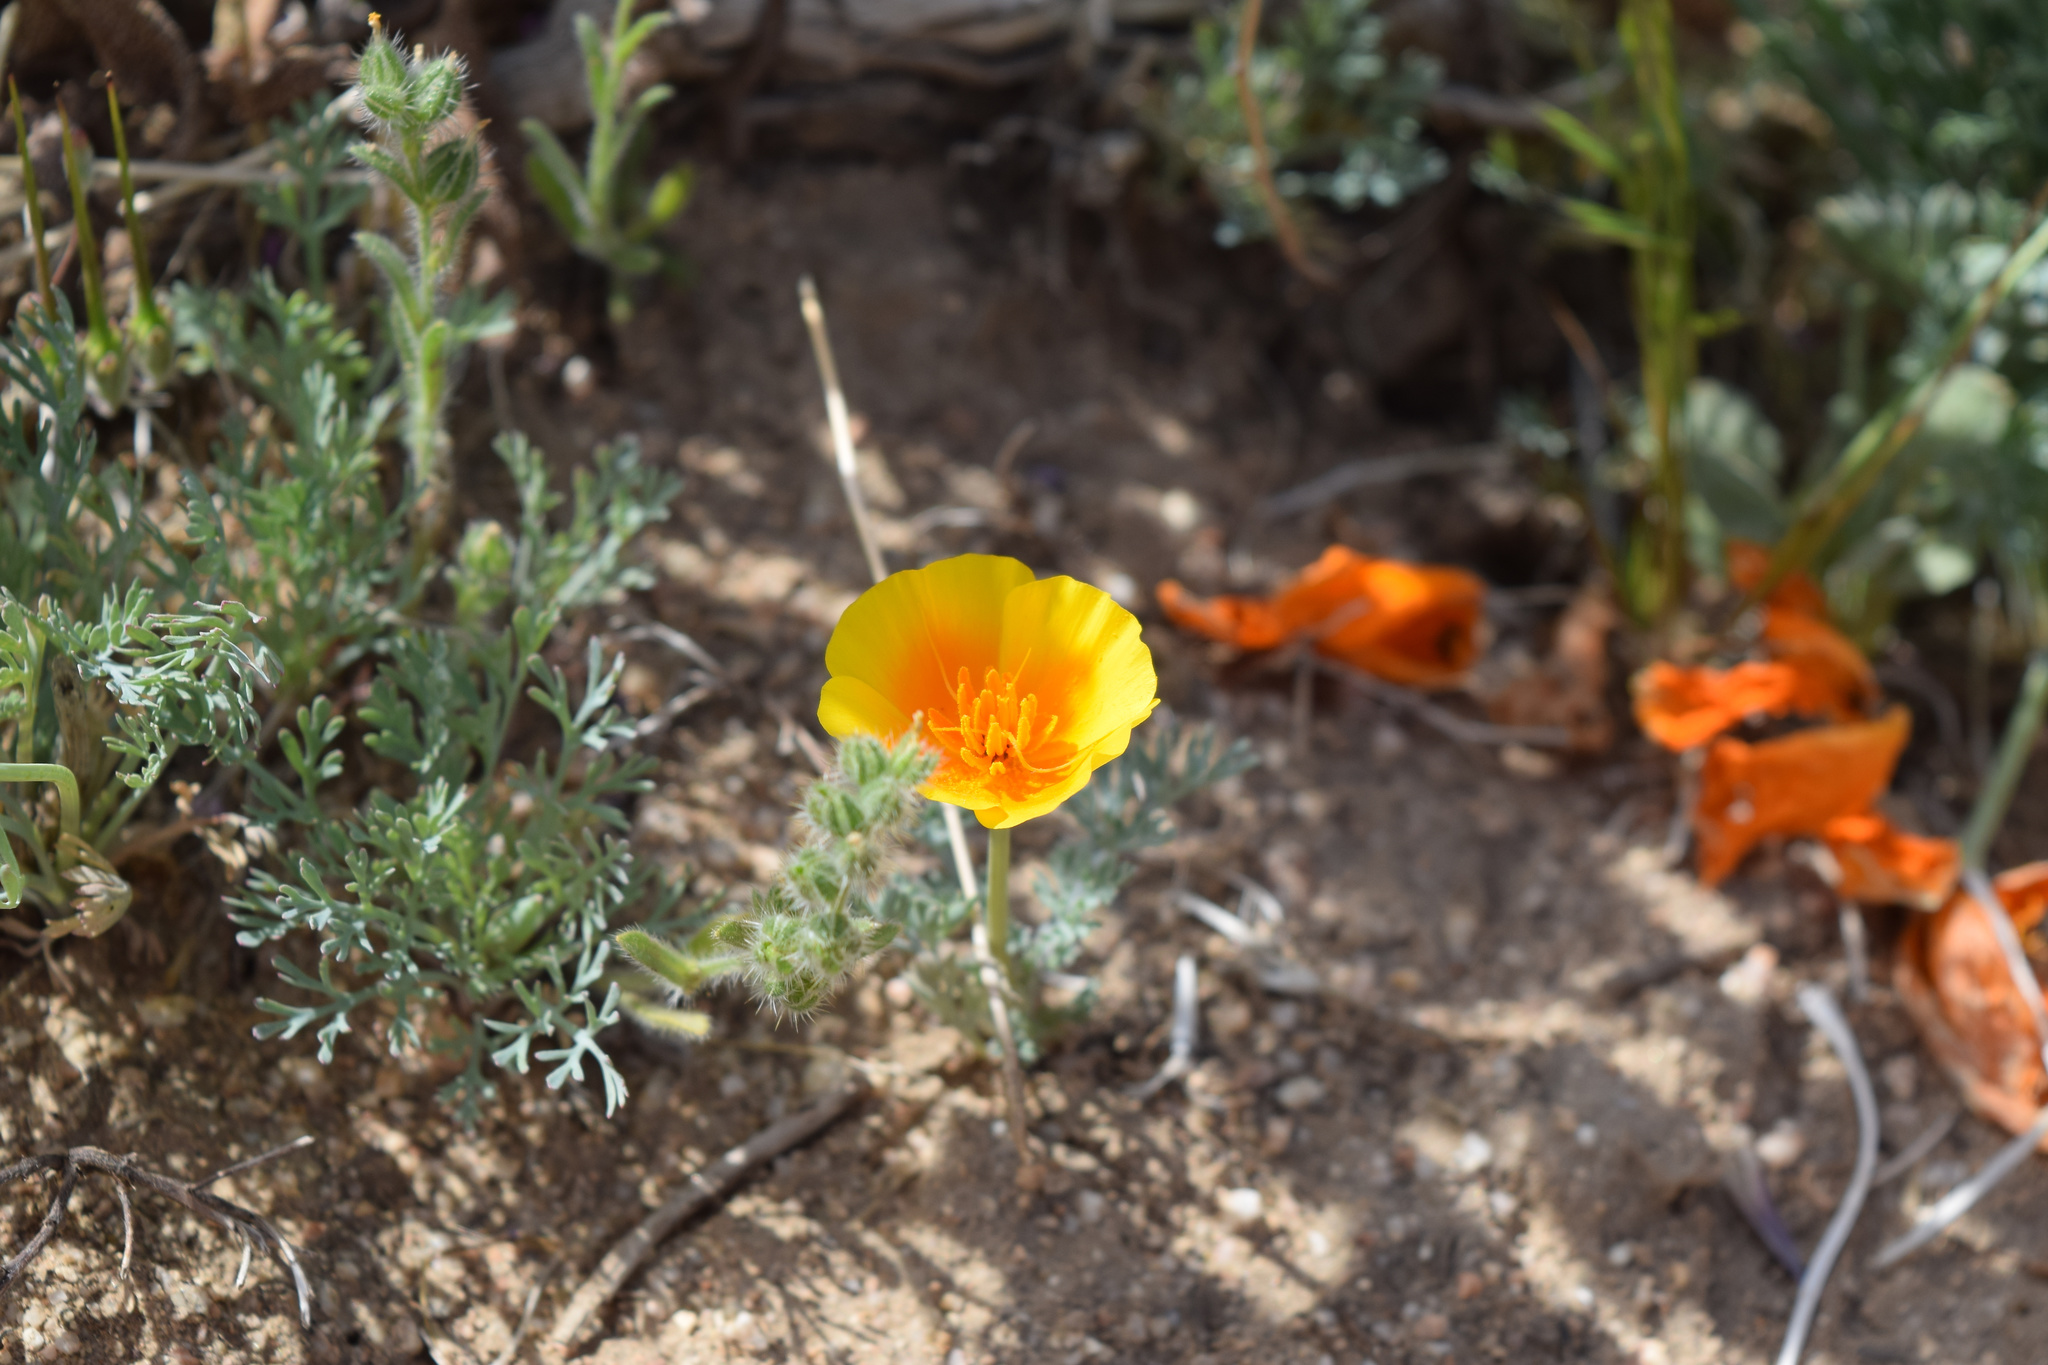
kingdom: Plantae
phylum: Tracheophyta
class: Magnoliopsida
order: Ranunculales
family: Papaveraceae
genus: Eschscholzia
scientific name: Eschscholzia californica
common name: California poppy
